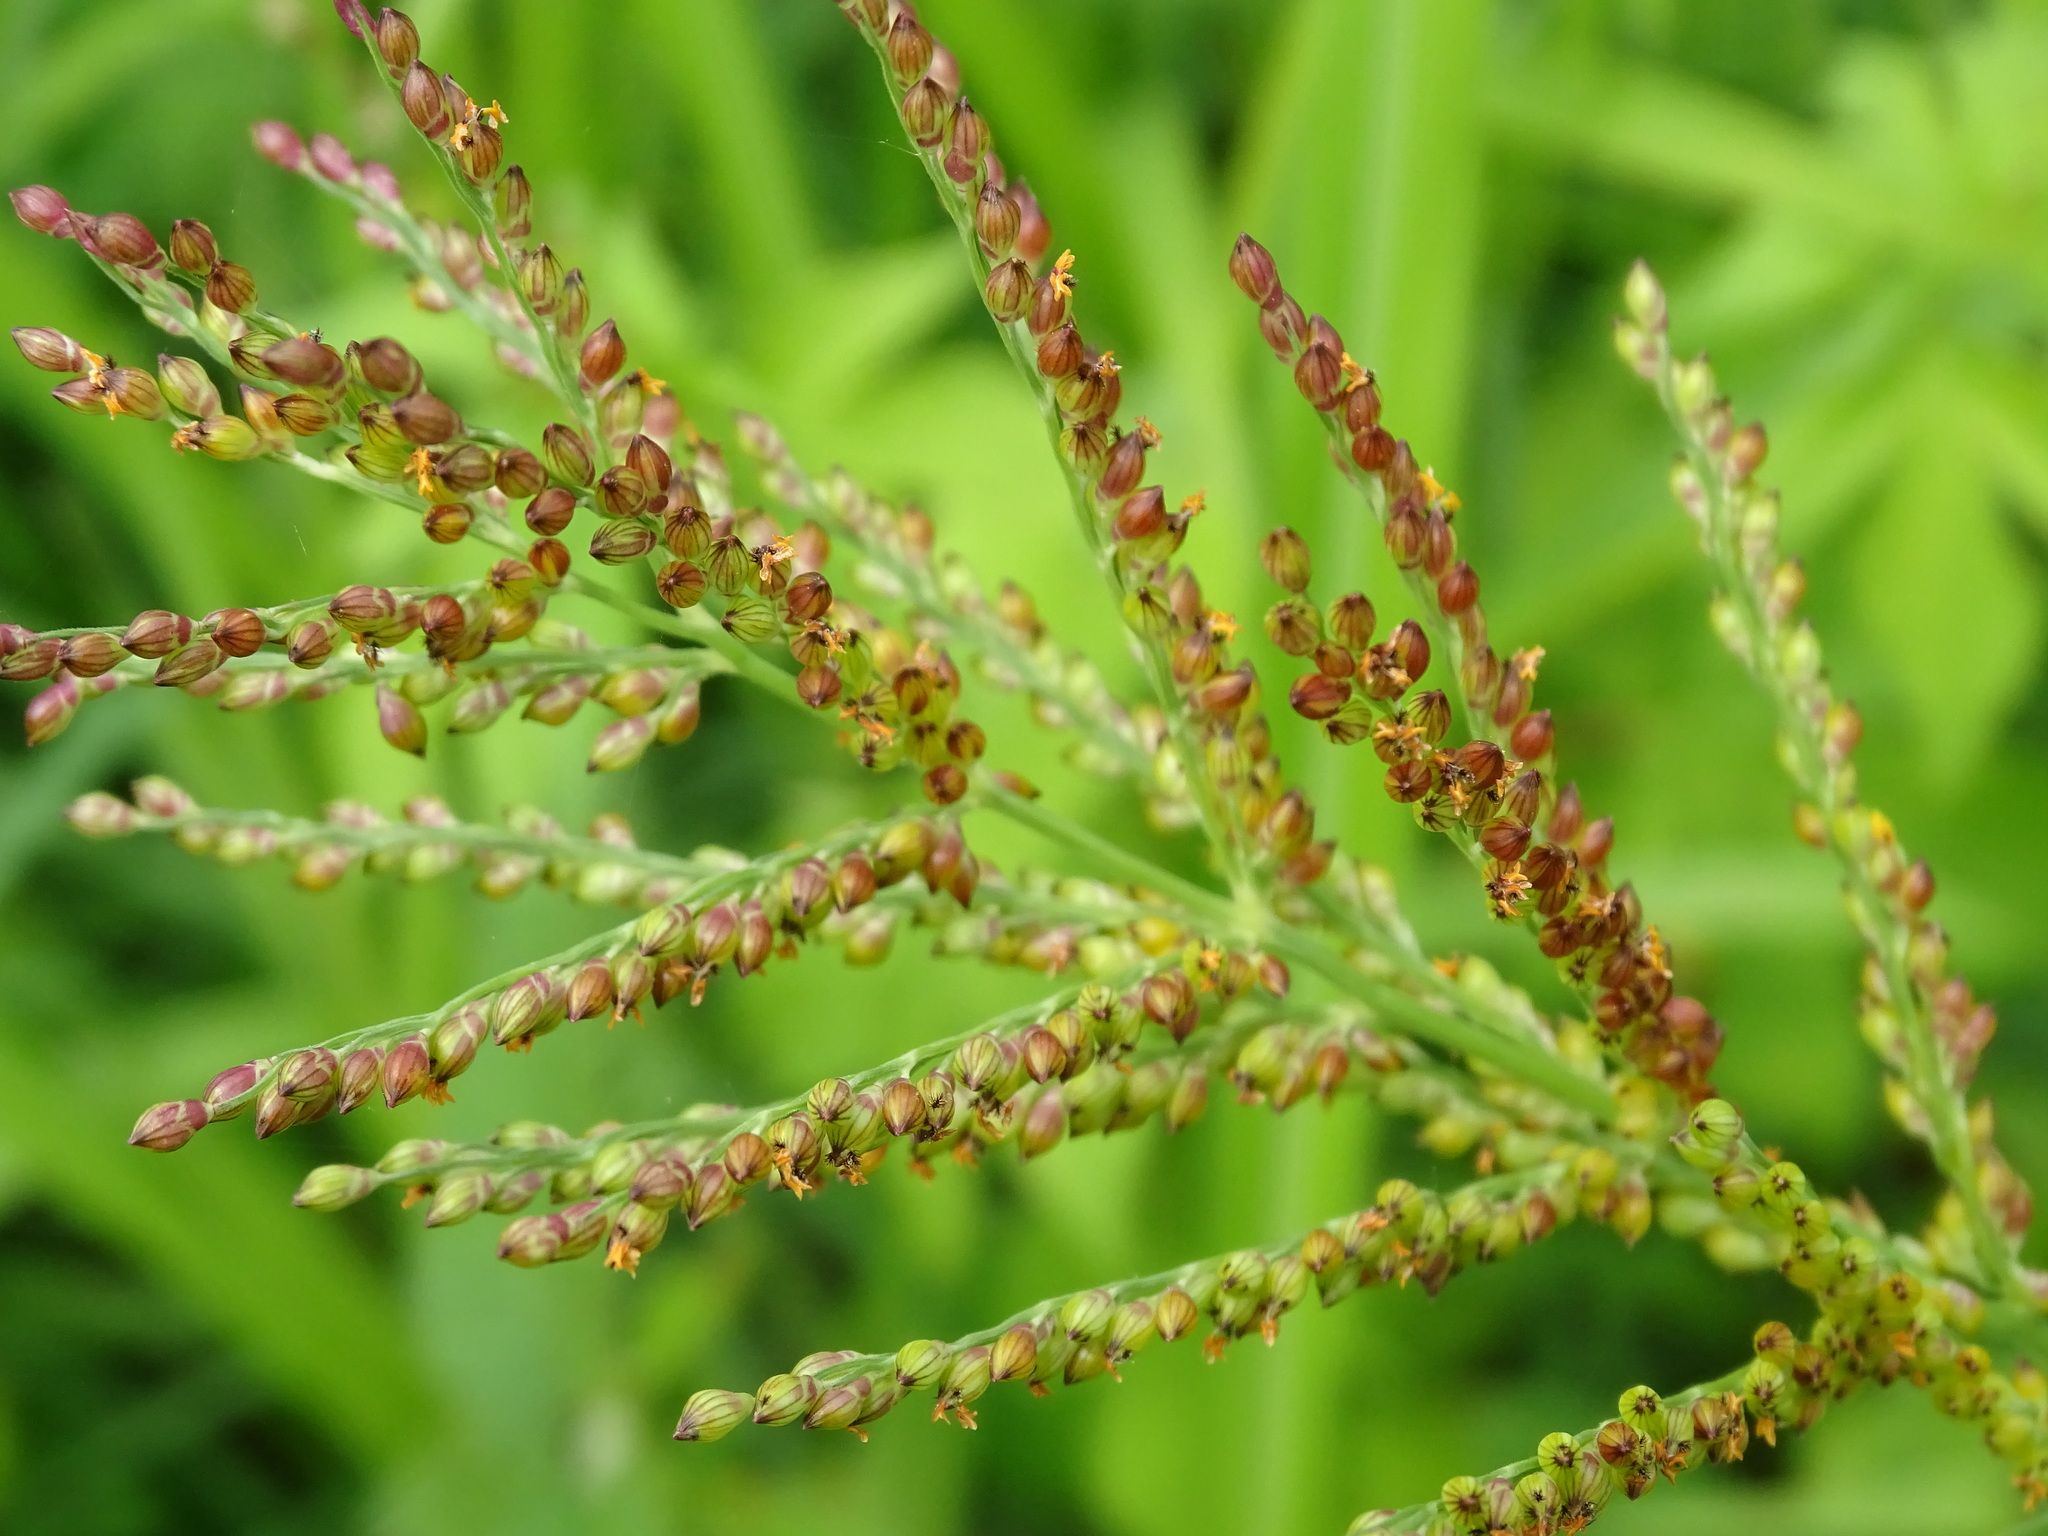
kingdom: Plantae
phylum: Tracheophyta
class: Liliopsida
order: Poales
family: Poaceae
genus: Urochloa
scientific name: Urochloa fusca
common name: Browntop signal grass
